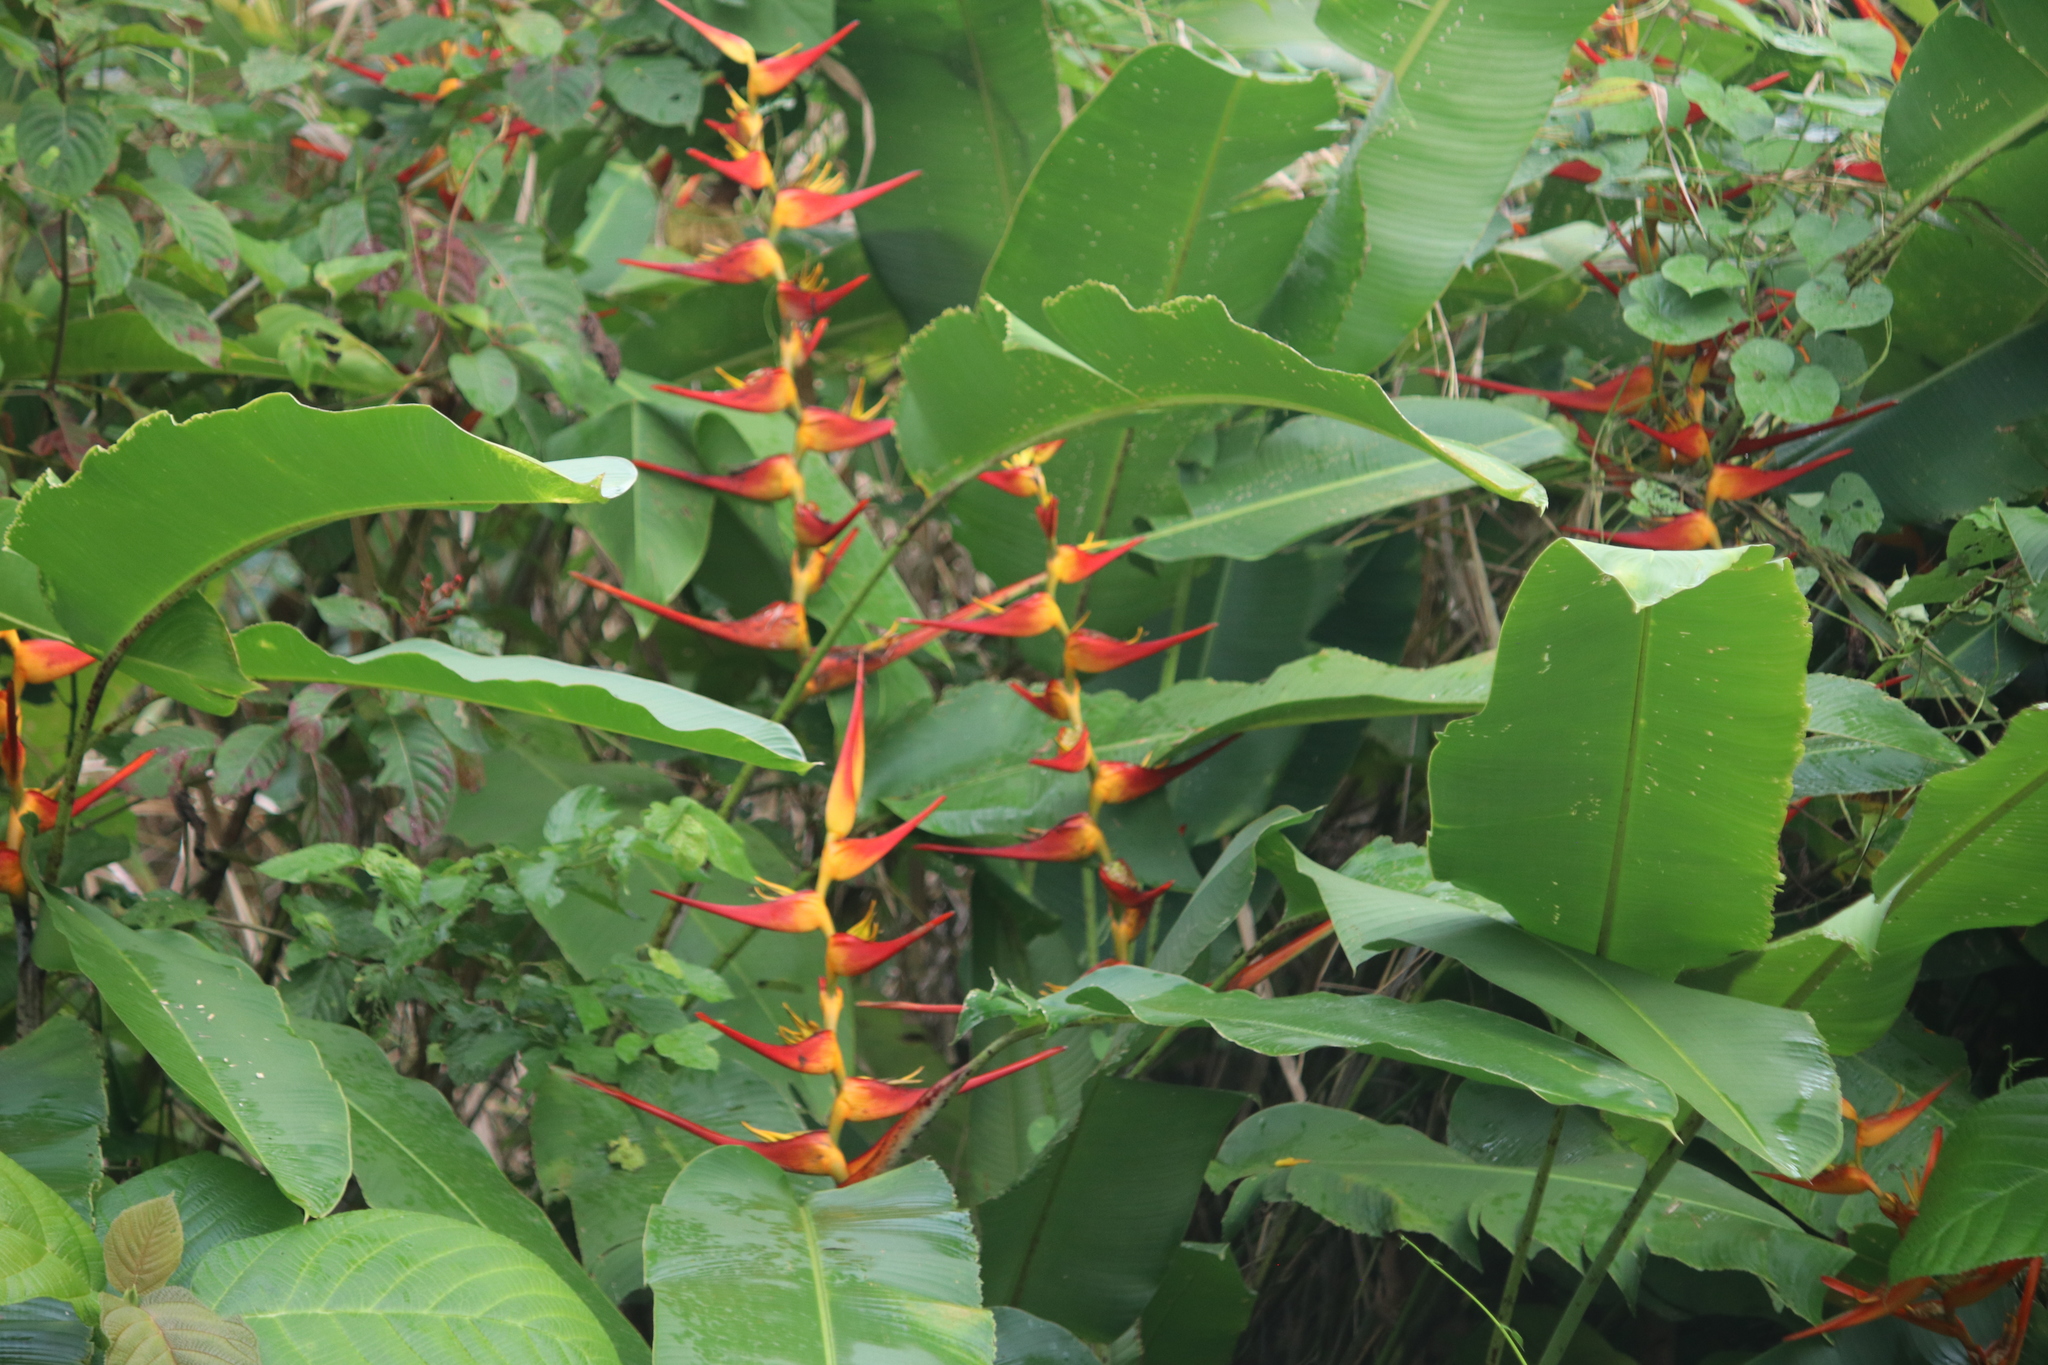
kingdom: Plantae
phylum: Tracheophyta
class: Liliopsida
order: Zingiberales
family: Heliconiaceae
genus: Heliconia
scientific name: Heliconia latispatha
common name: Expanded lobsterclaw
